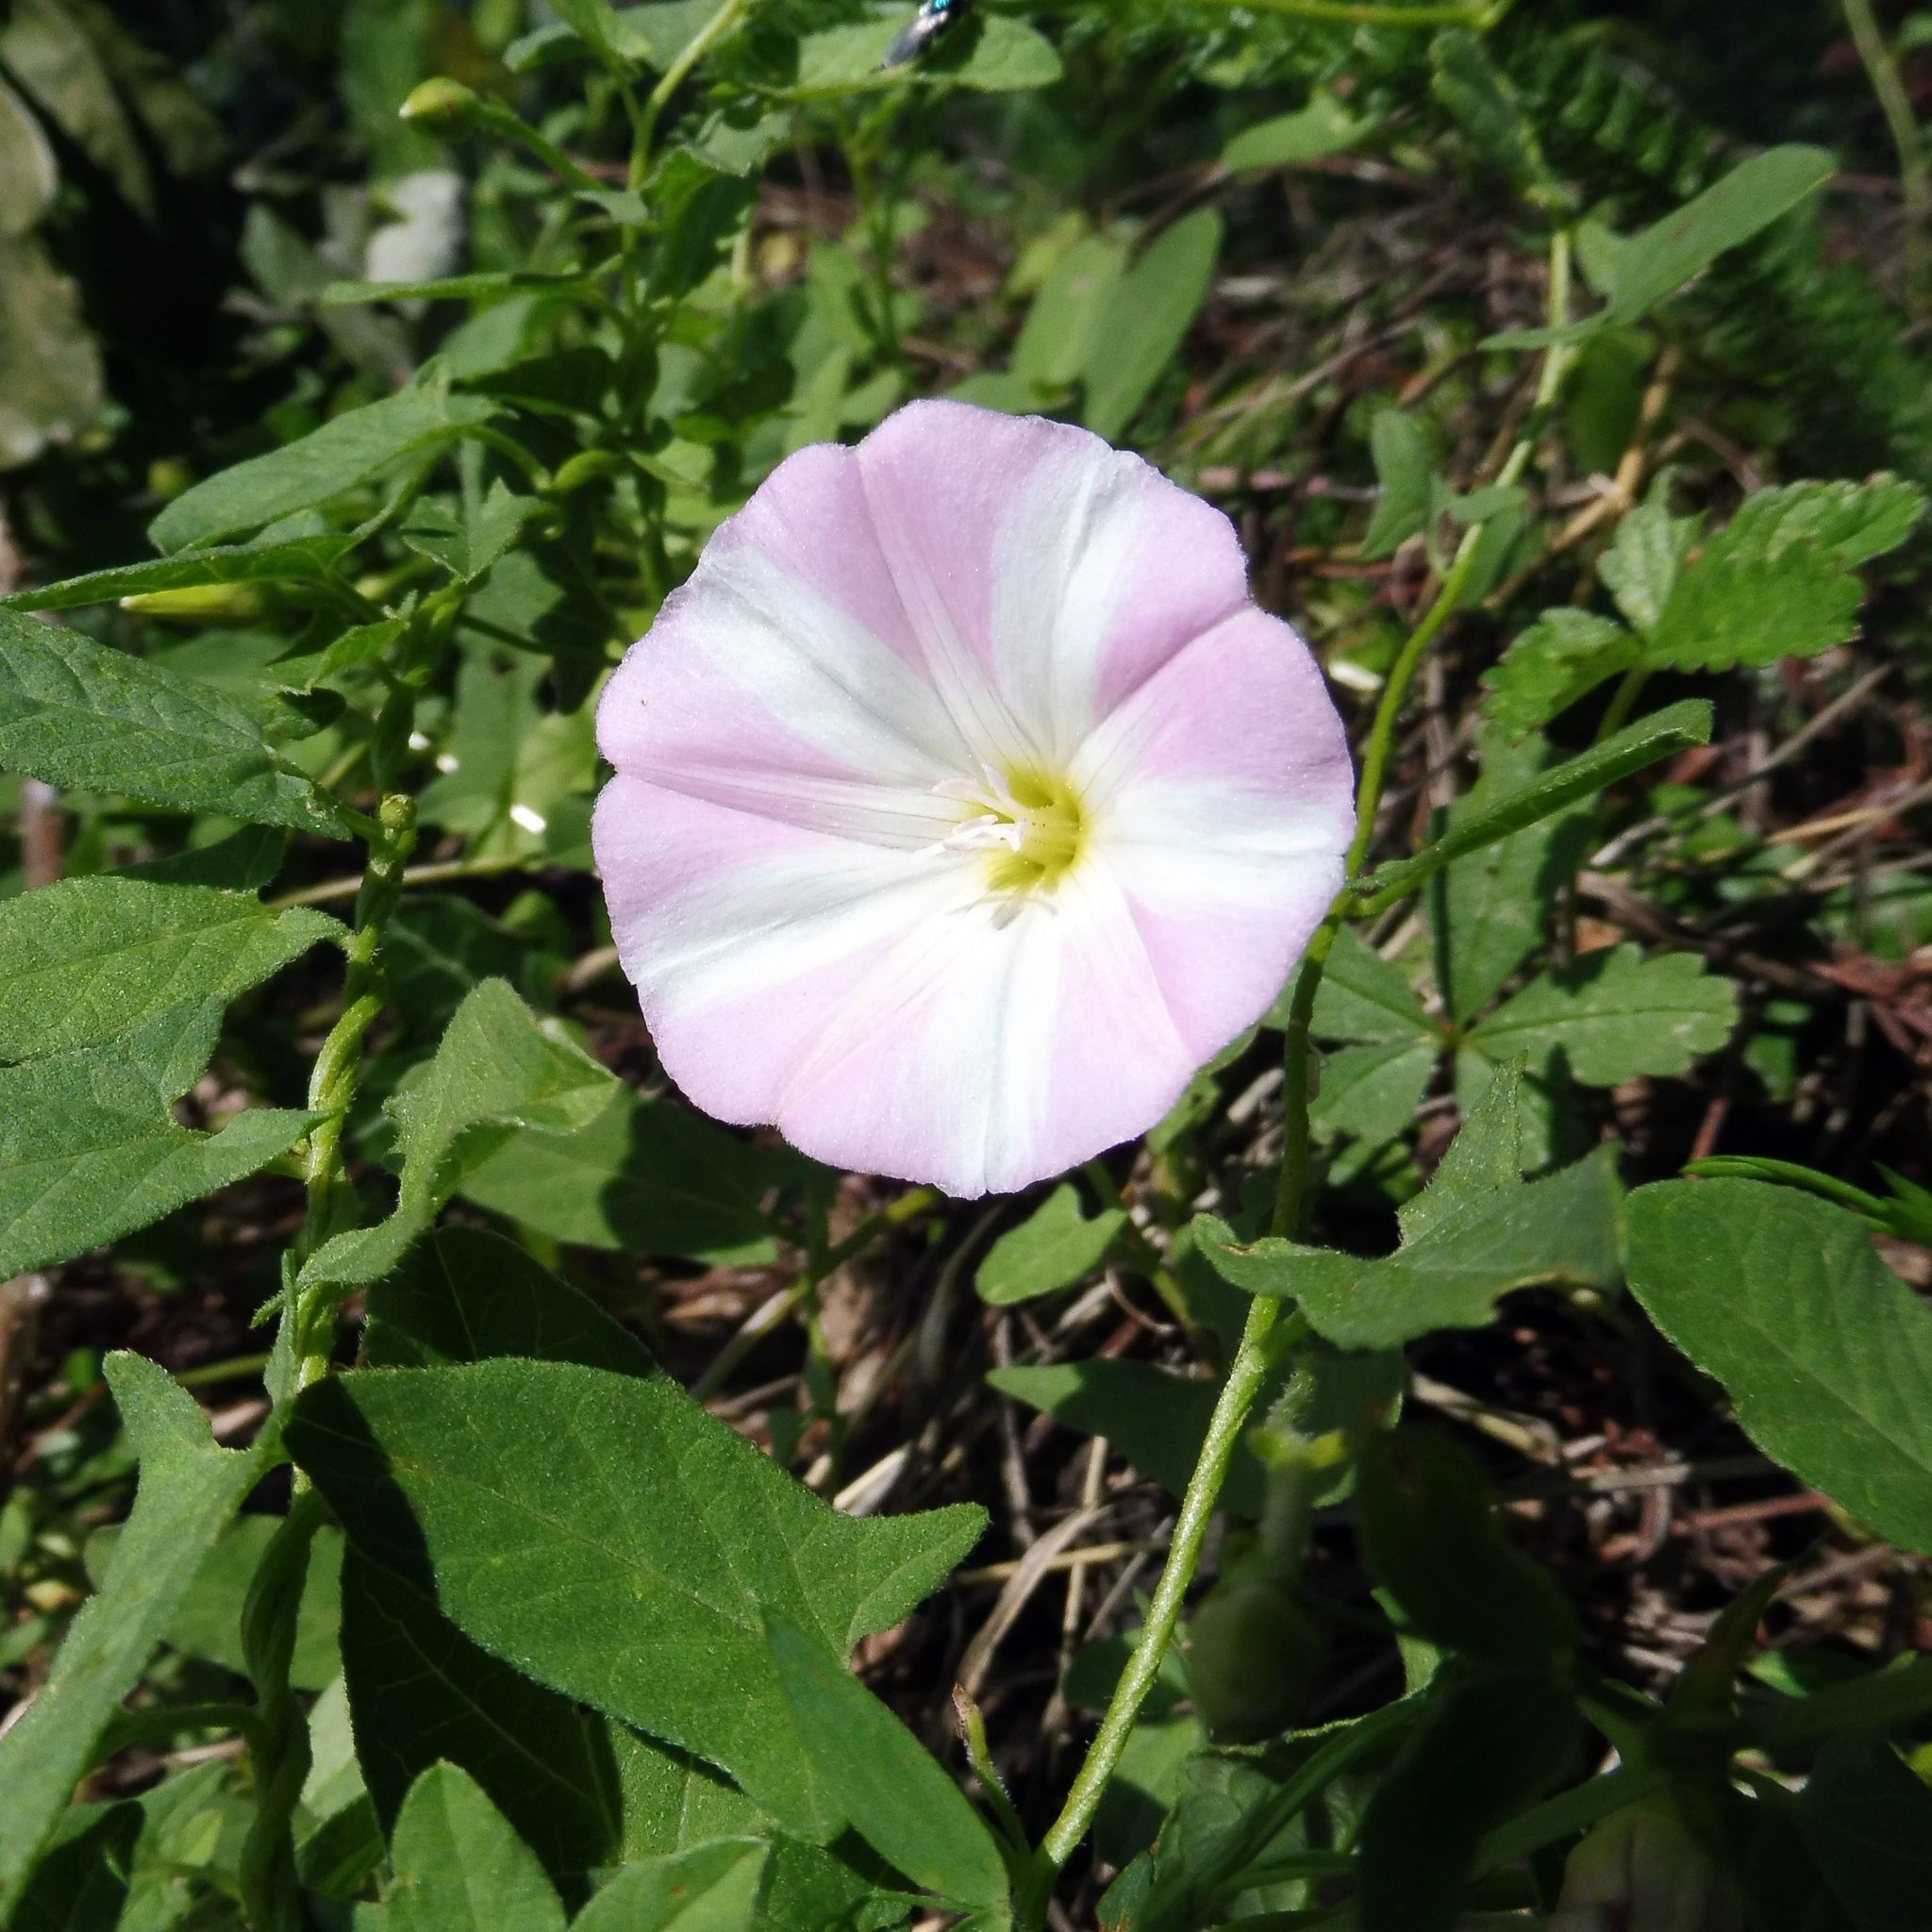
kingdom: Plantae
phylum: Tracheophyta
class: Magnoliopsida
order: Solanales
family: Convolvulaceae
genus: Convolvulus
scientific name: Convolvulus arvensis
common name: Field bindweed
